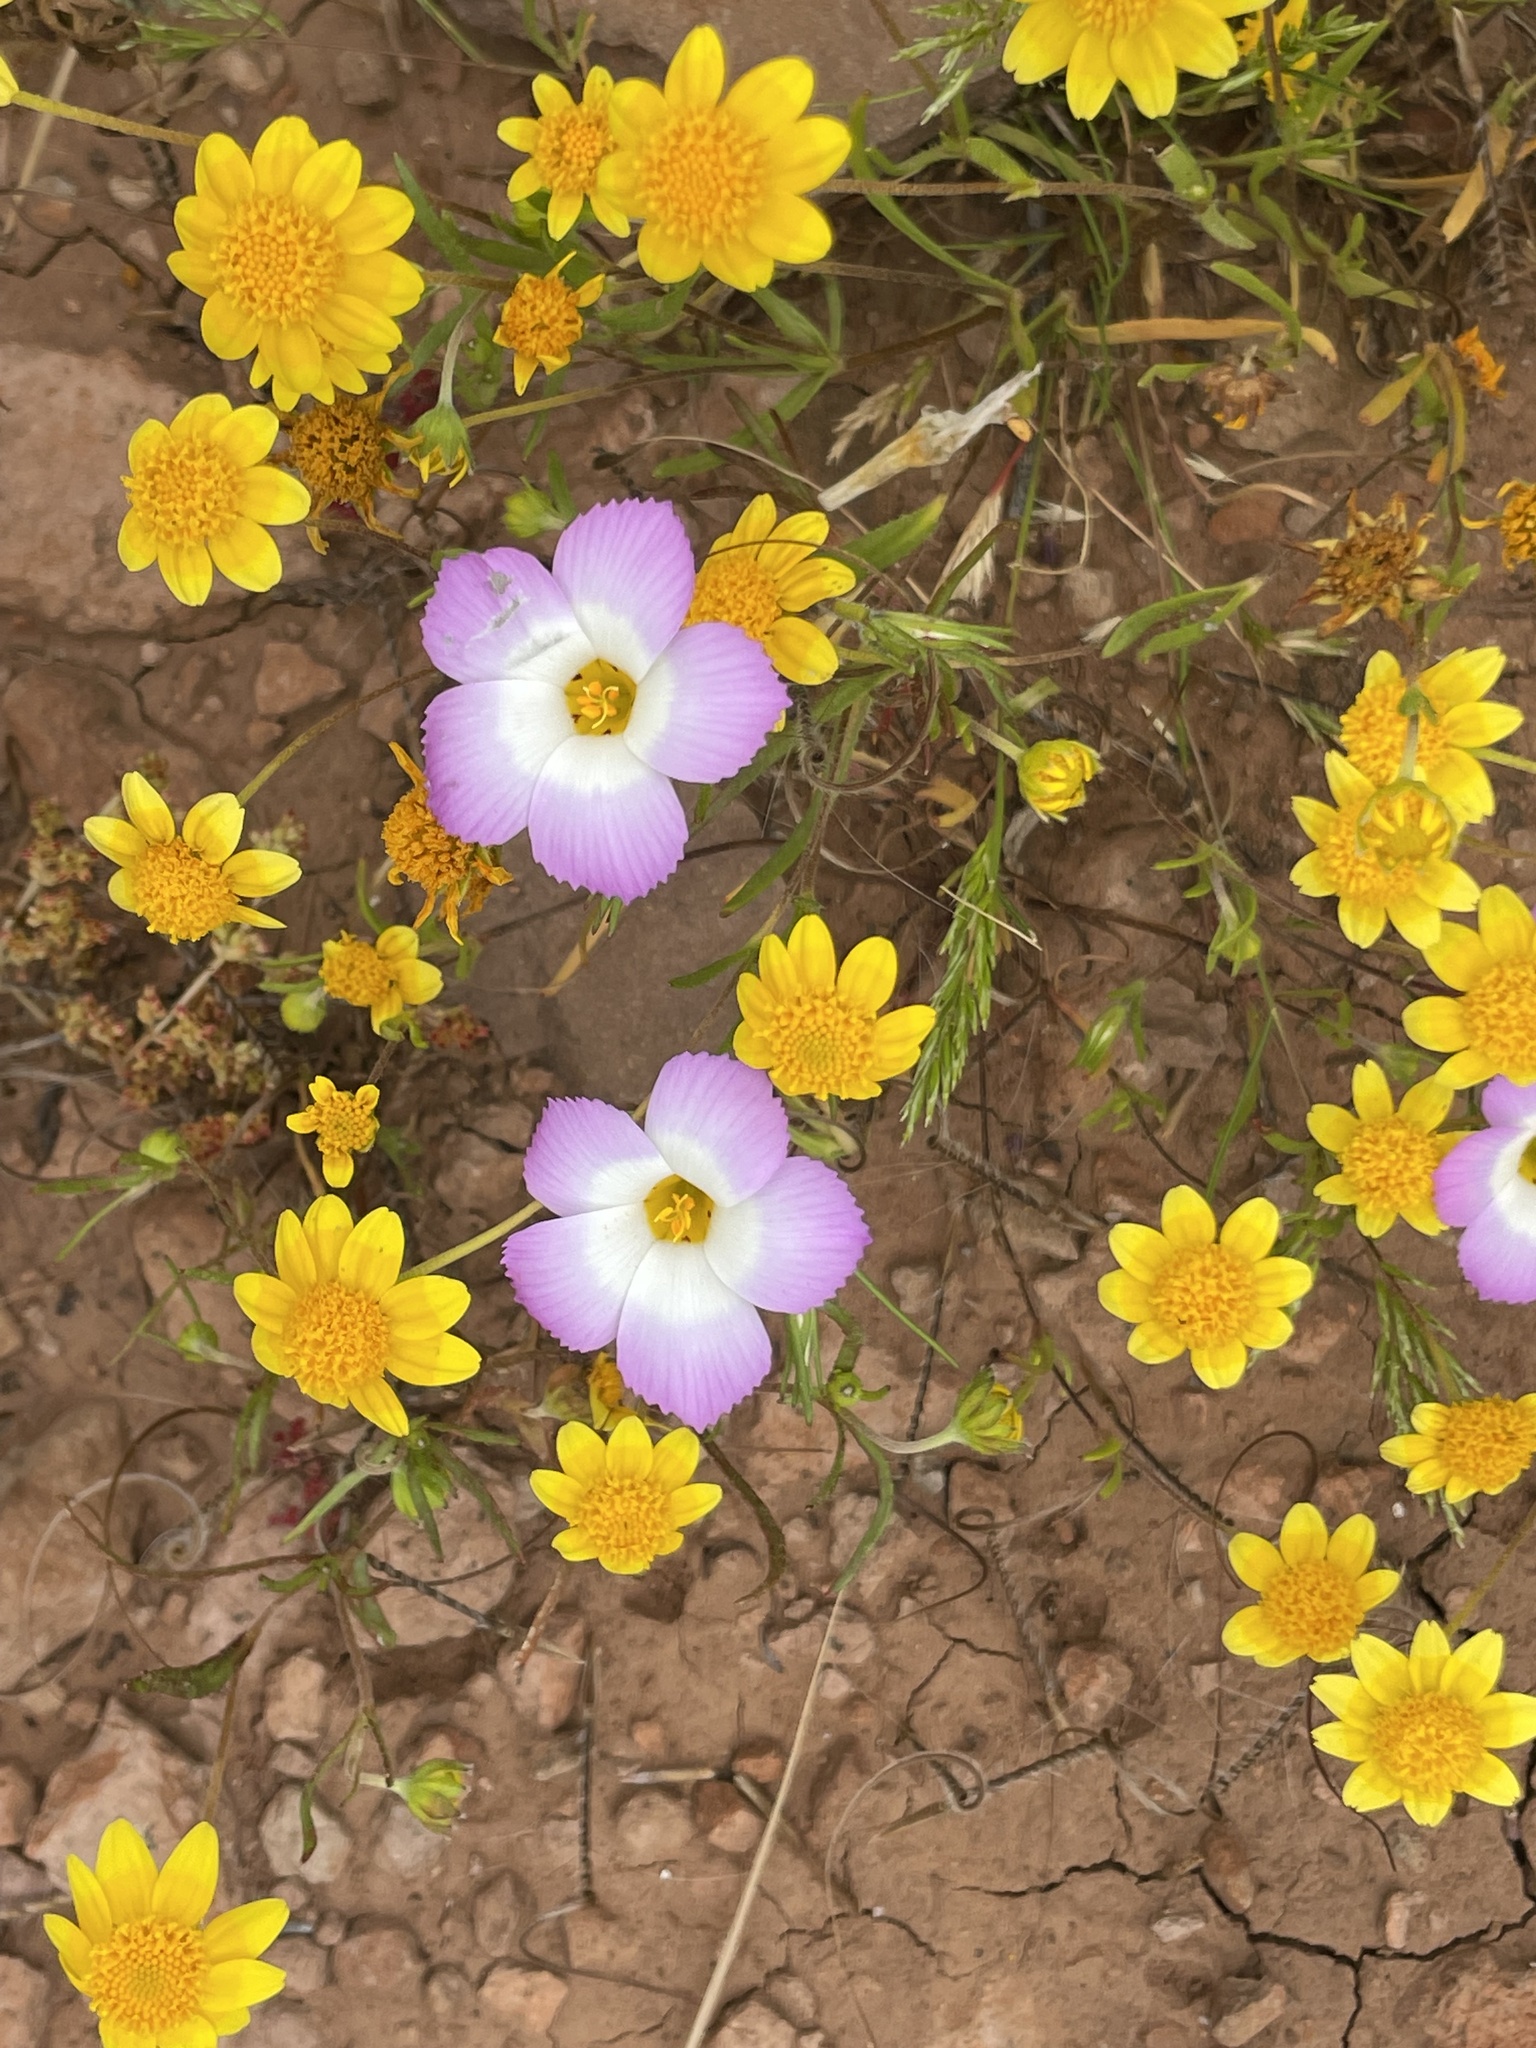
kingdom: Plantae
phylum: Tracheophyta
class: Magnoliopsida
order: Ericales
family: Polemoniaceae
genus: Linanthus
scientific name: Linanthus dianthiflorus
